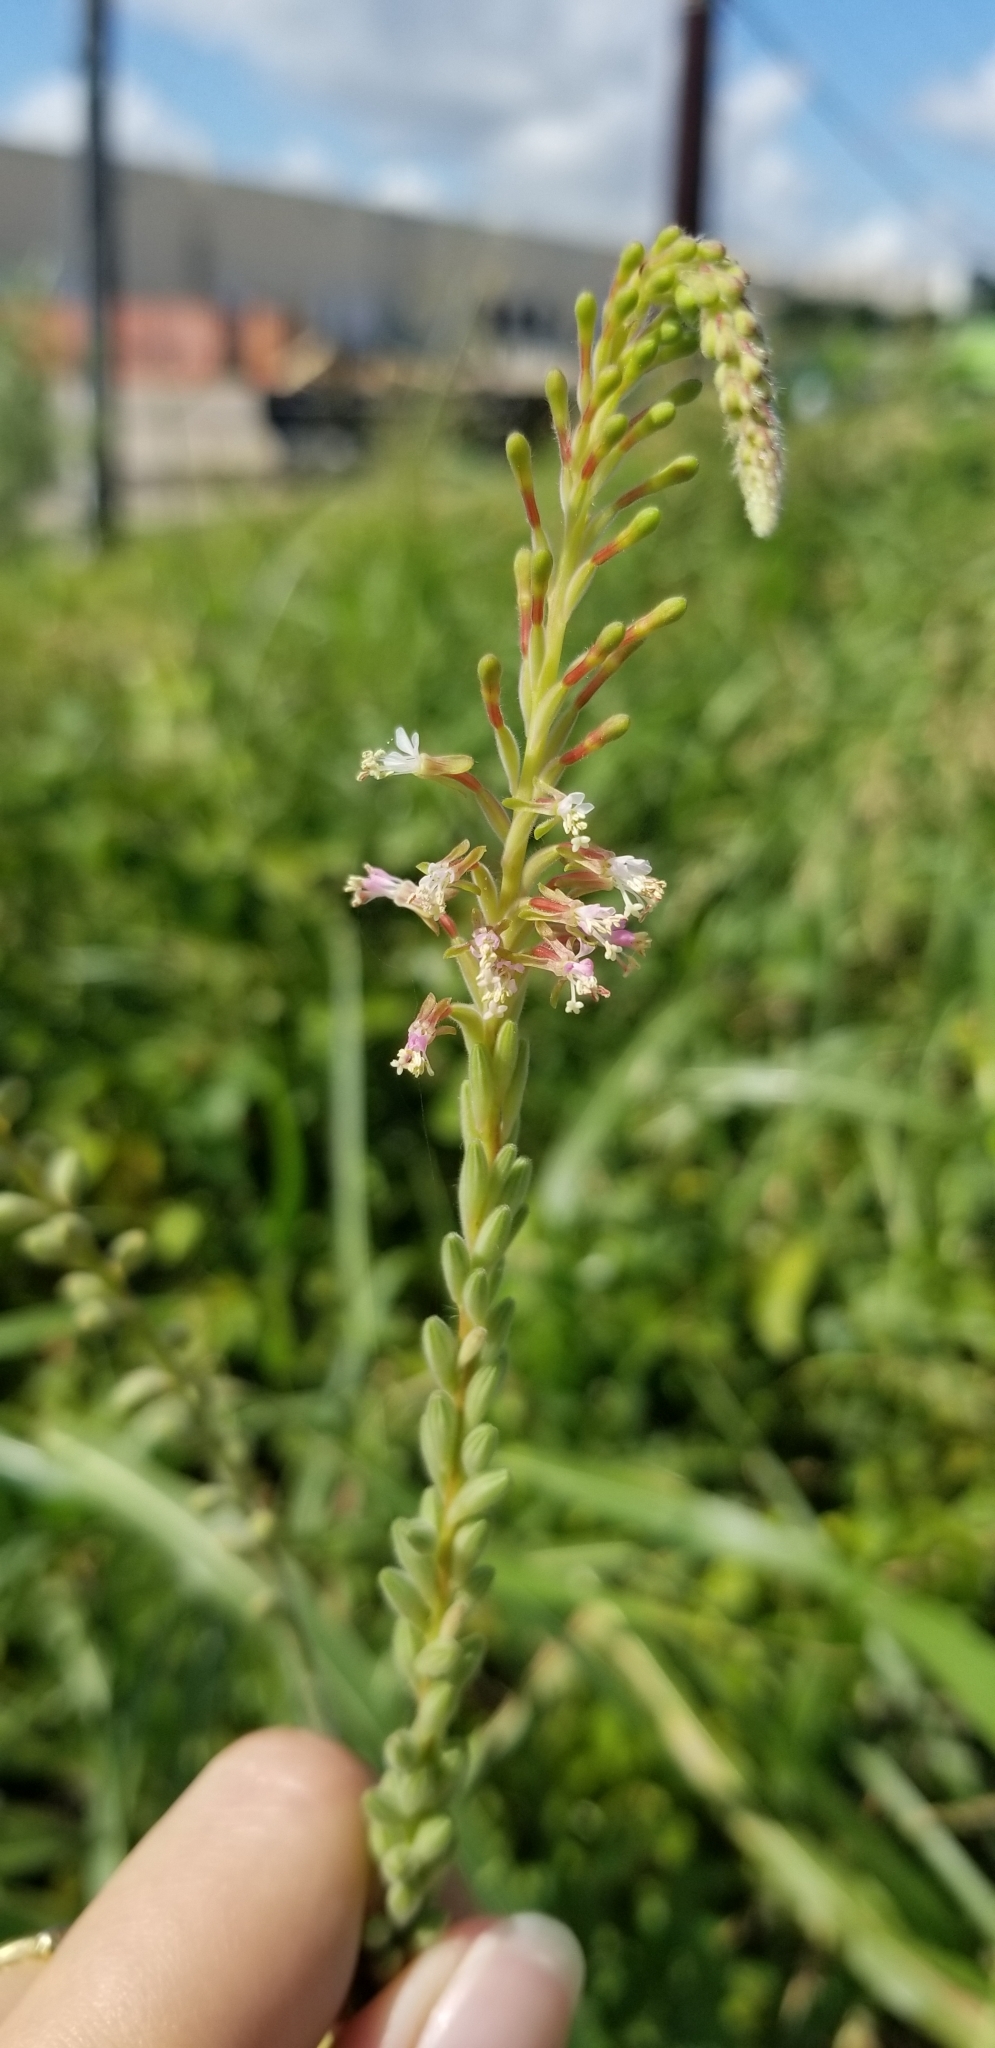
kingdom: Plantae
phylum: Tracheophyta
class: Magnoliopsida
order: Myrtales
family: Onagraceae
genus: Oenothera
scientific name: Oenothera curtiflora
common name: Velvetweed
